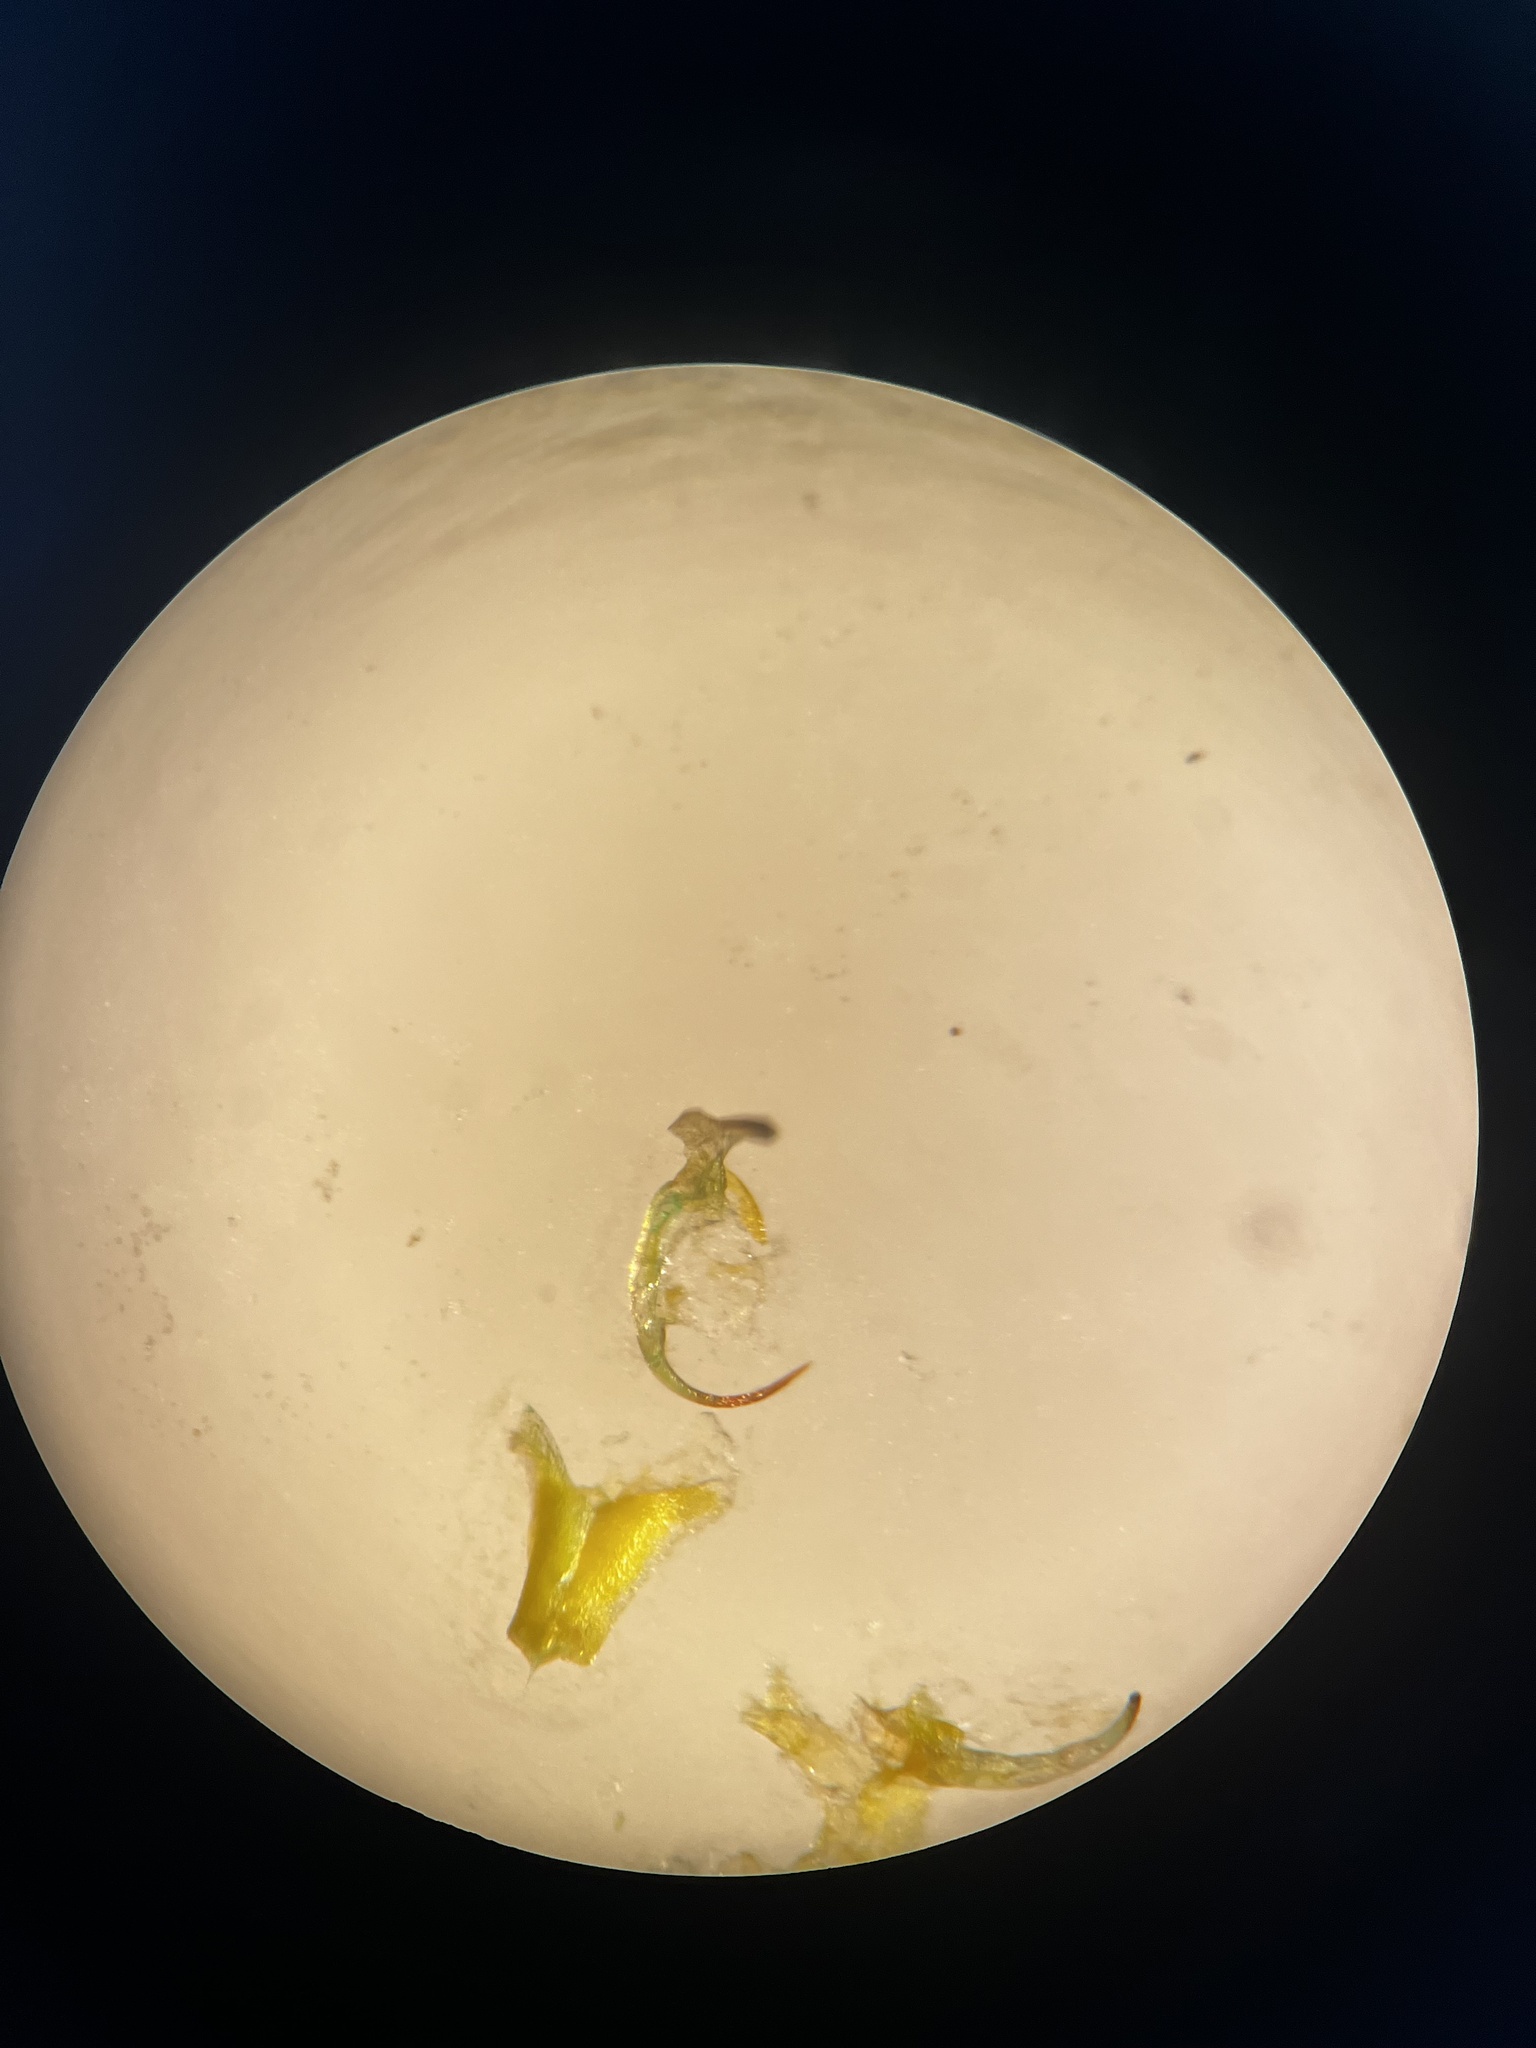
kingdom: Animalia
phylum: Arthropoda
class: Insecta
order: Hemiptera
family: Cicadellidae
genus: Chlorita
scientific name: Chlorita paolii
